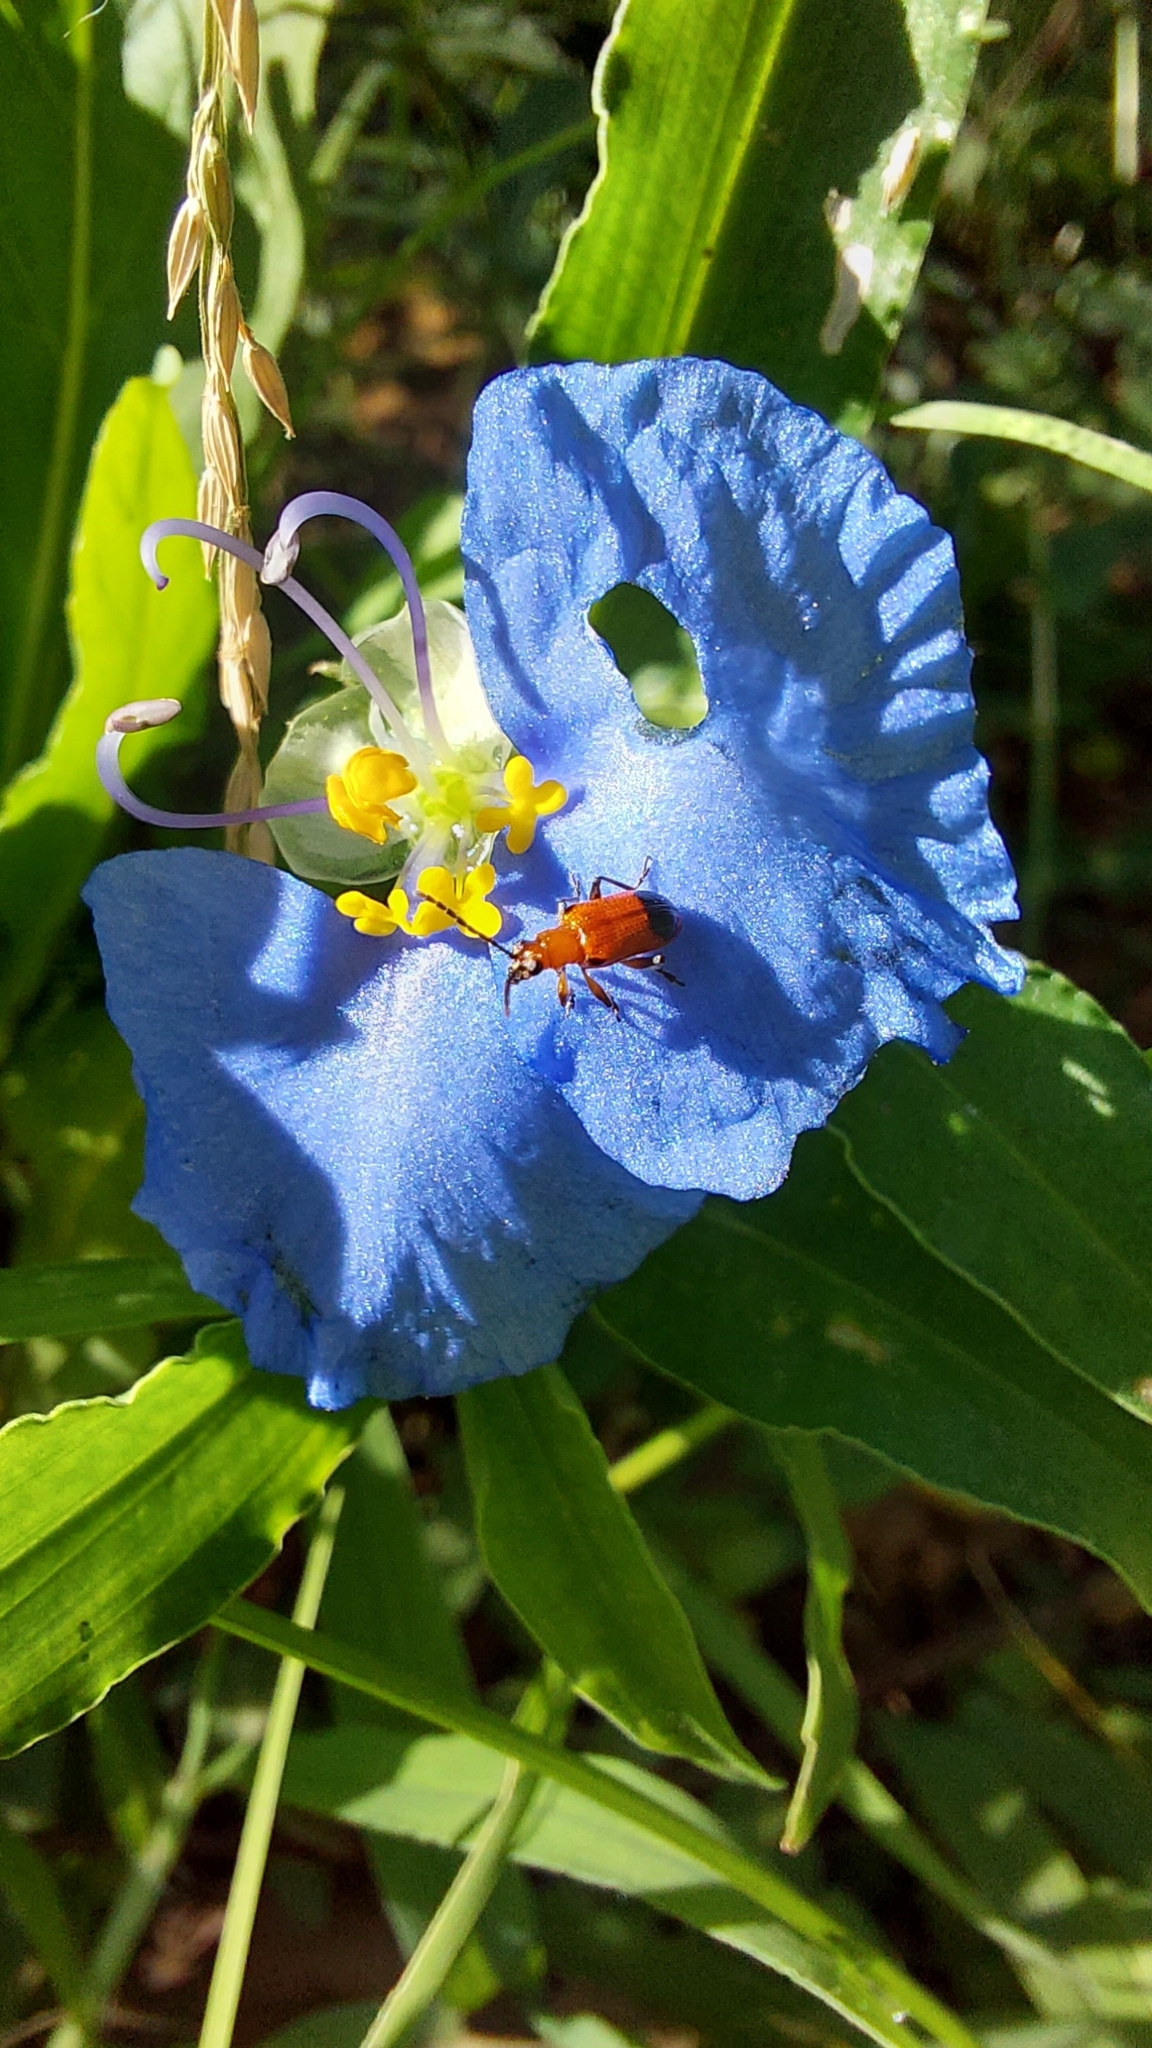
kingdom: Animalia
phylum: Arthropoda
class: Insecta
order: Coleoptera
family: Chrysomelidae
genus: Neolema
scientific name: Neolema dorsalis
